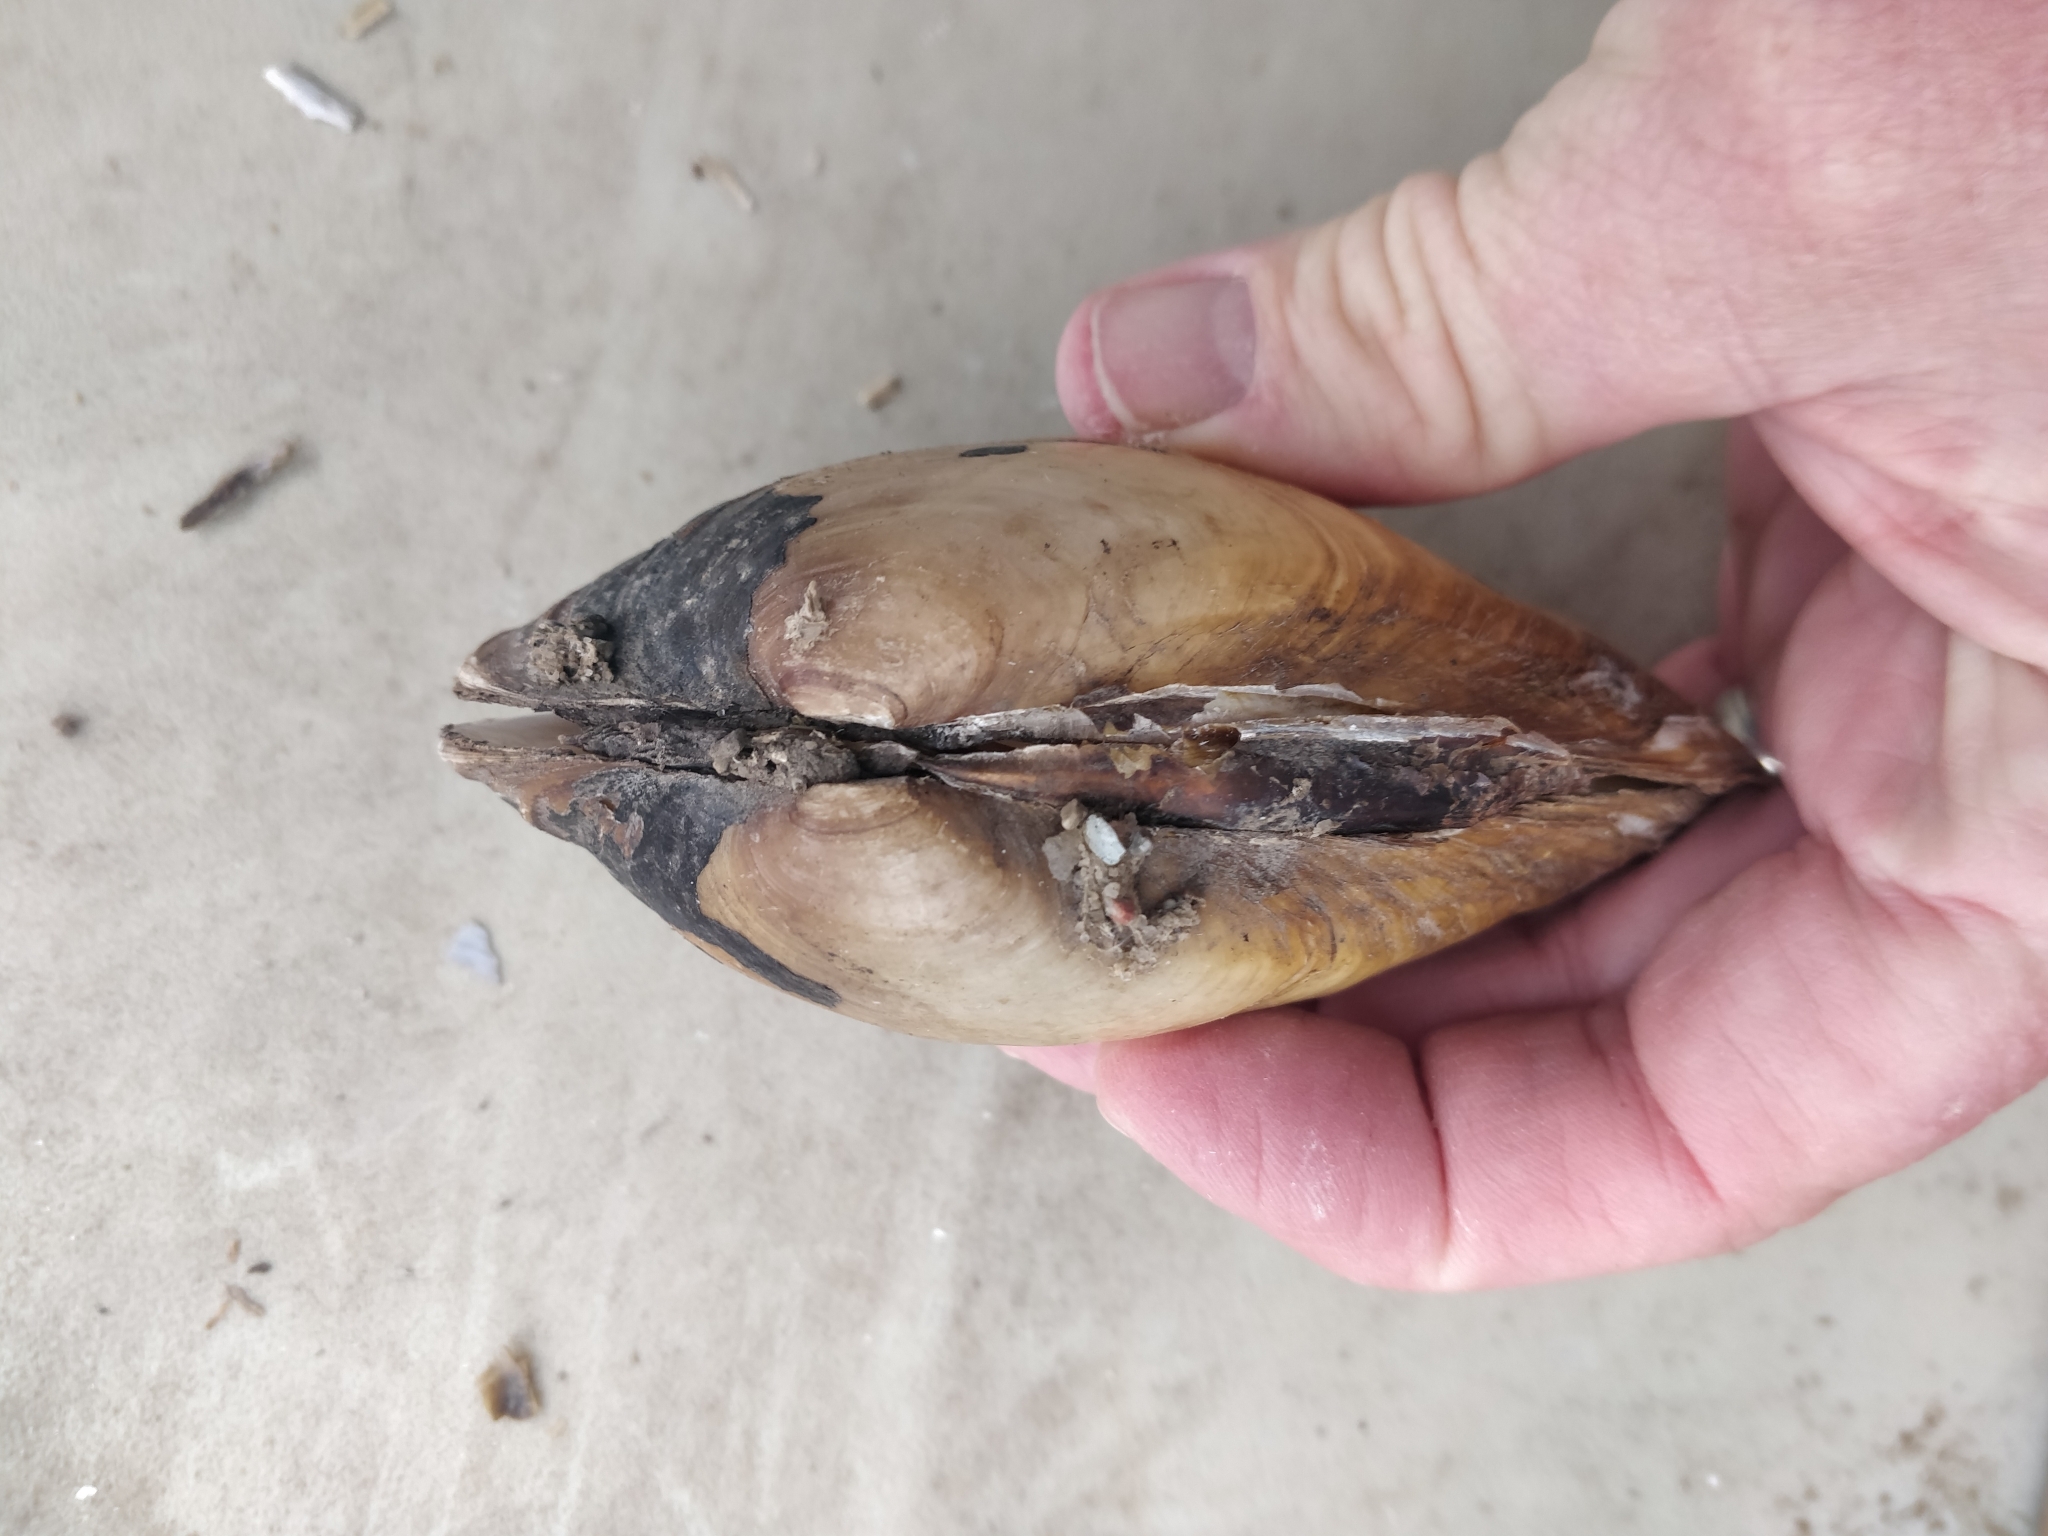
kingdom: Animalia
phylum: Mollusca
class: Bivalvia
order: Unionida
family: Unionidae
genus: Lampsilis
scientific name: Lampsilis cardium
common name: Plain pocketbook
